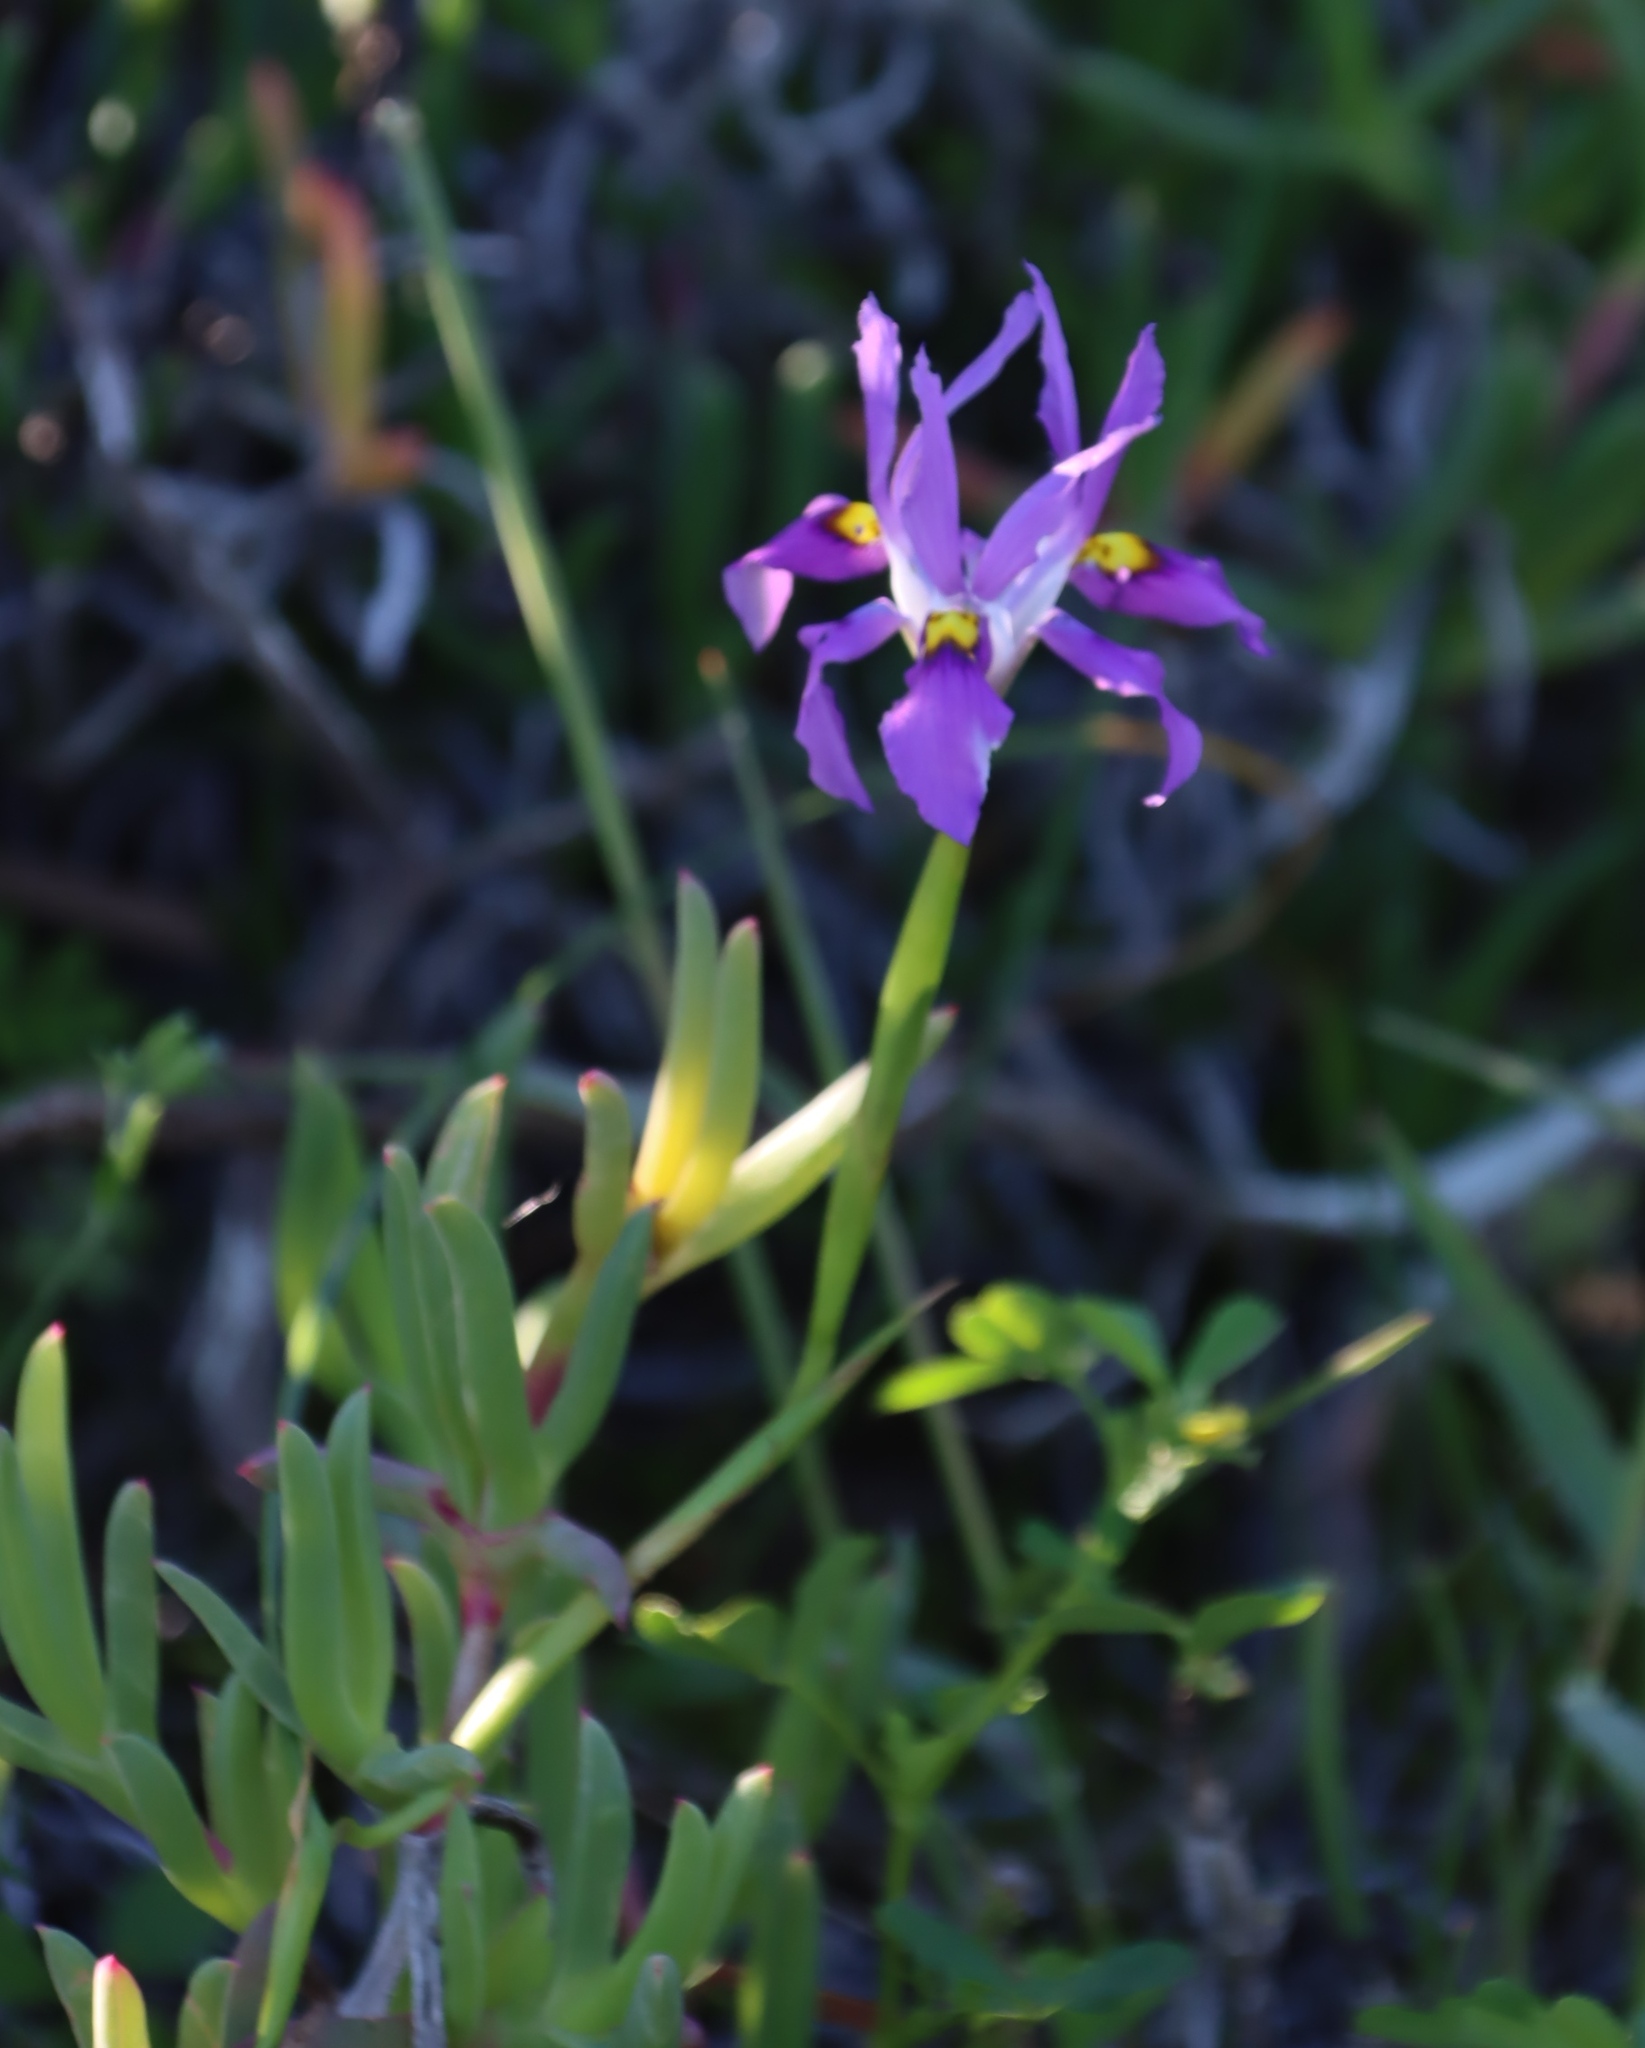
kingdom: Plantae
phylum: Tracheophyta
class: Liliopsida
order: Asparagales
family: Iridaceae
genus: Moraea
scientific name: Moraea fugax
